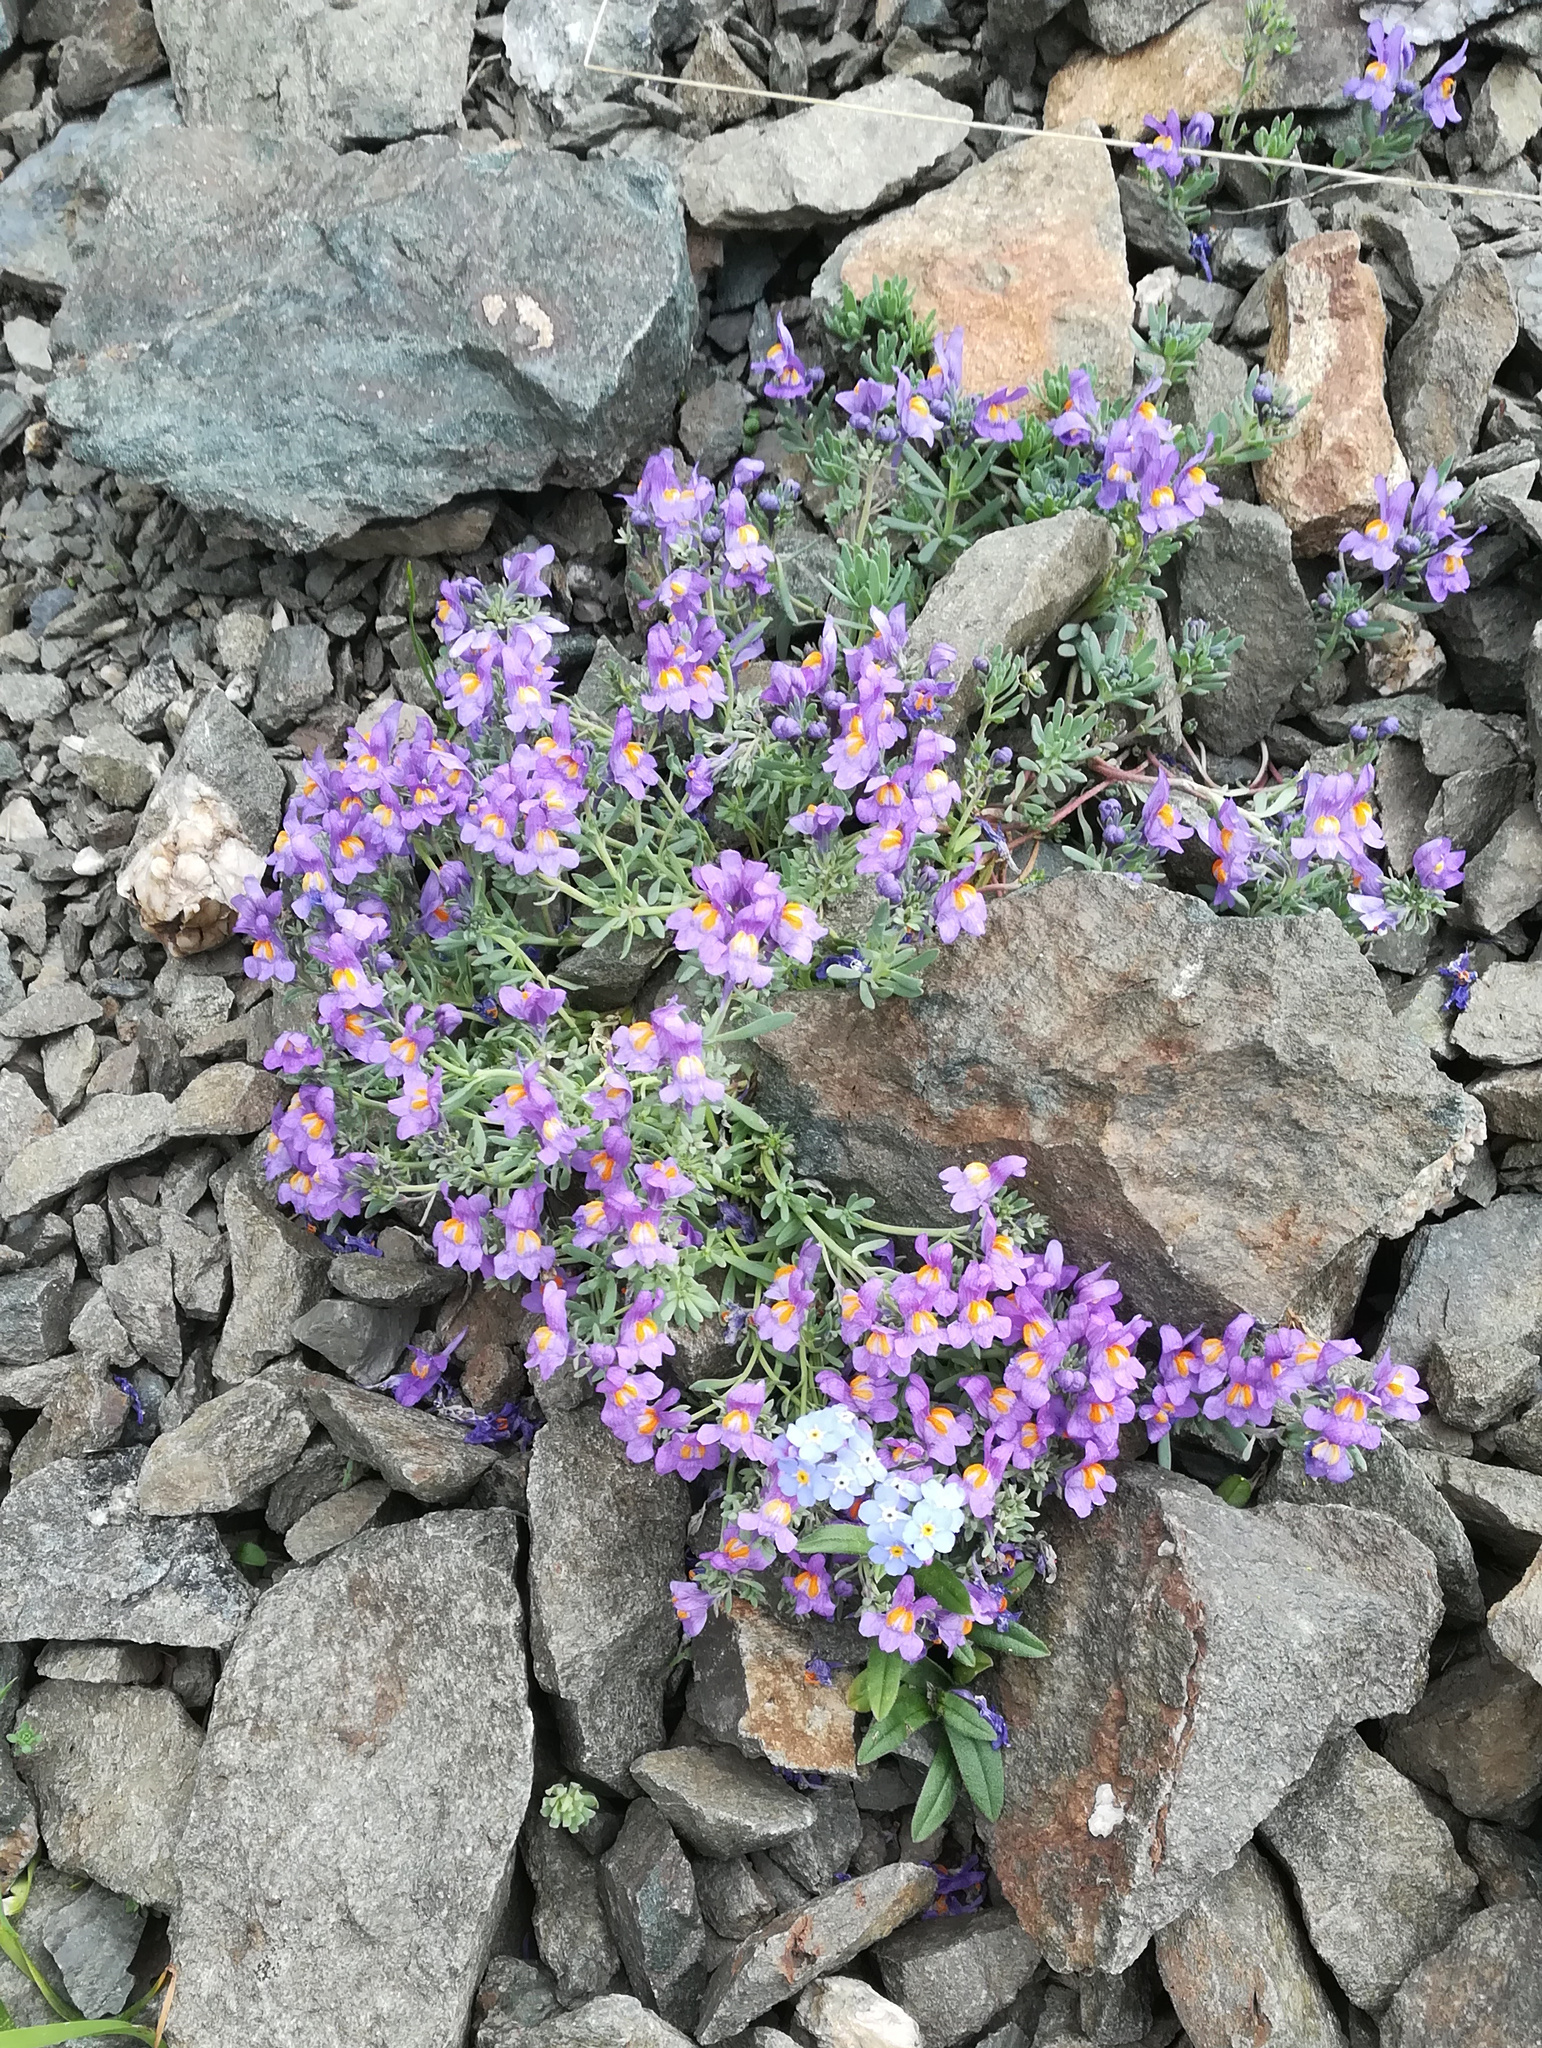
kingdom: Plantae
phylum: Tracheophyta
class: Magnoliopsida
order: Lamiales
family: Plantaginaceae
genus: Linaria
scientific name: Linaria alpina
